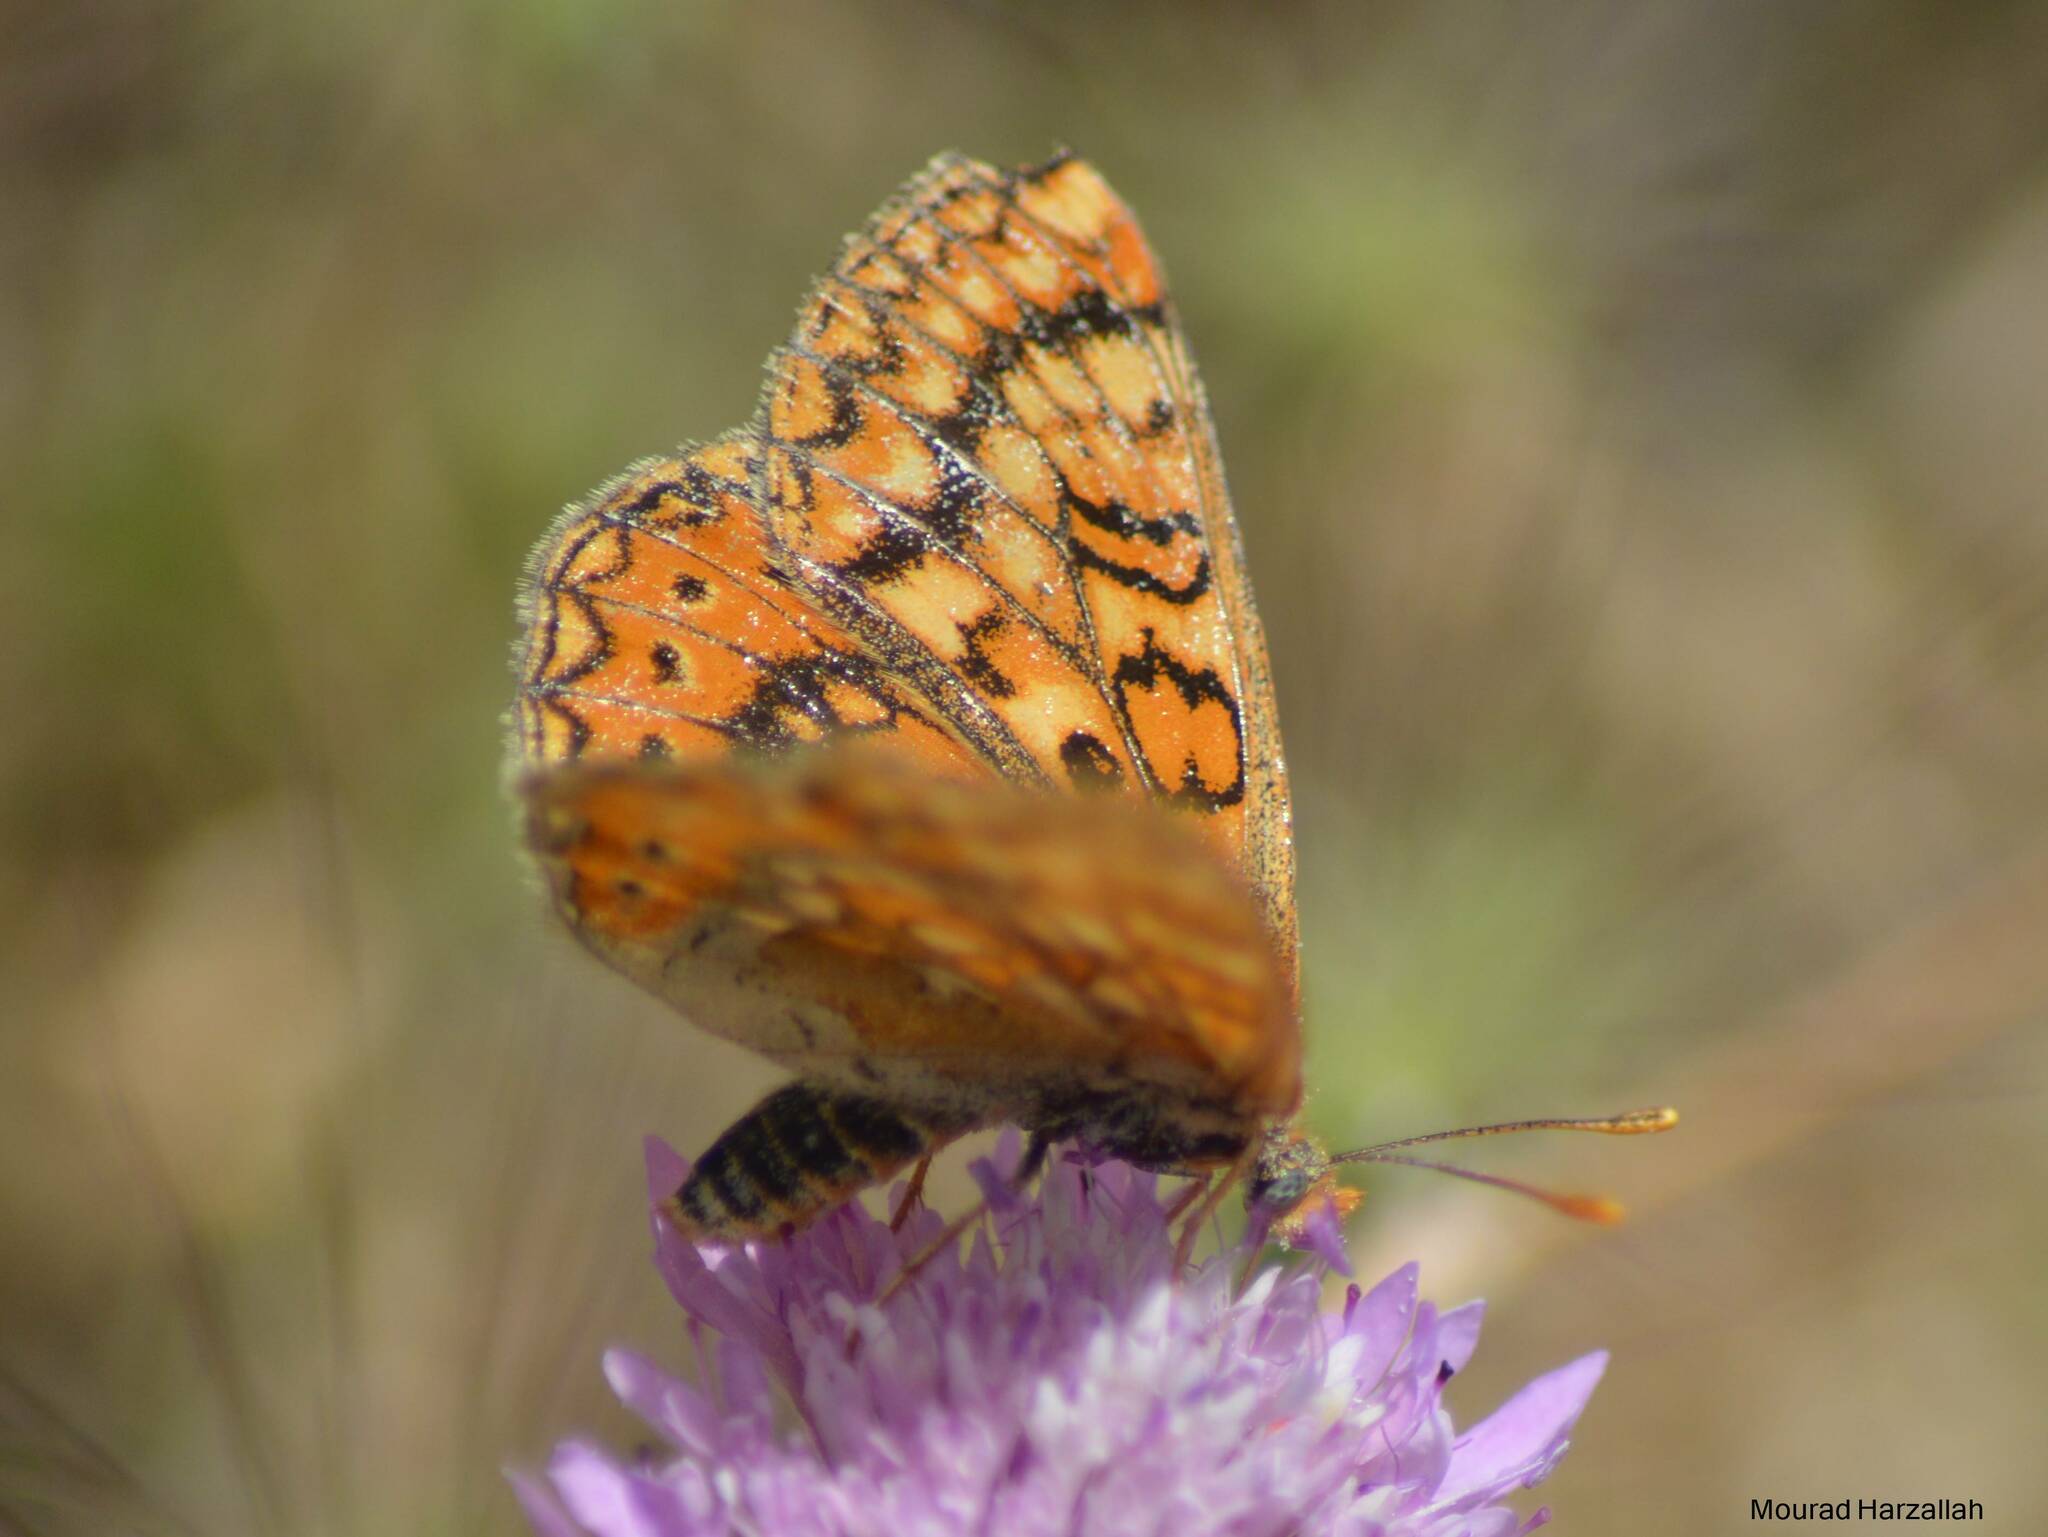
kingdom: Animalia
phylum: Arthropoda
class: Insecta
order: Lepidoptera
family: Nymphalidae
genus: Euphydryas
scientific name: Euphydryas aurinia
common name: Marsh fritillary
